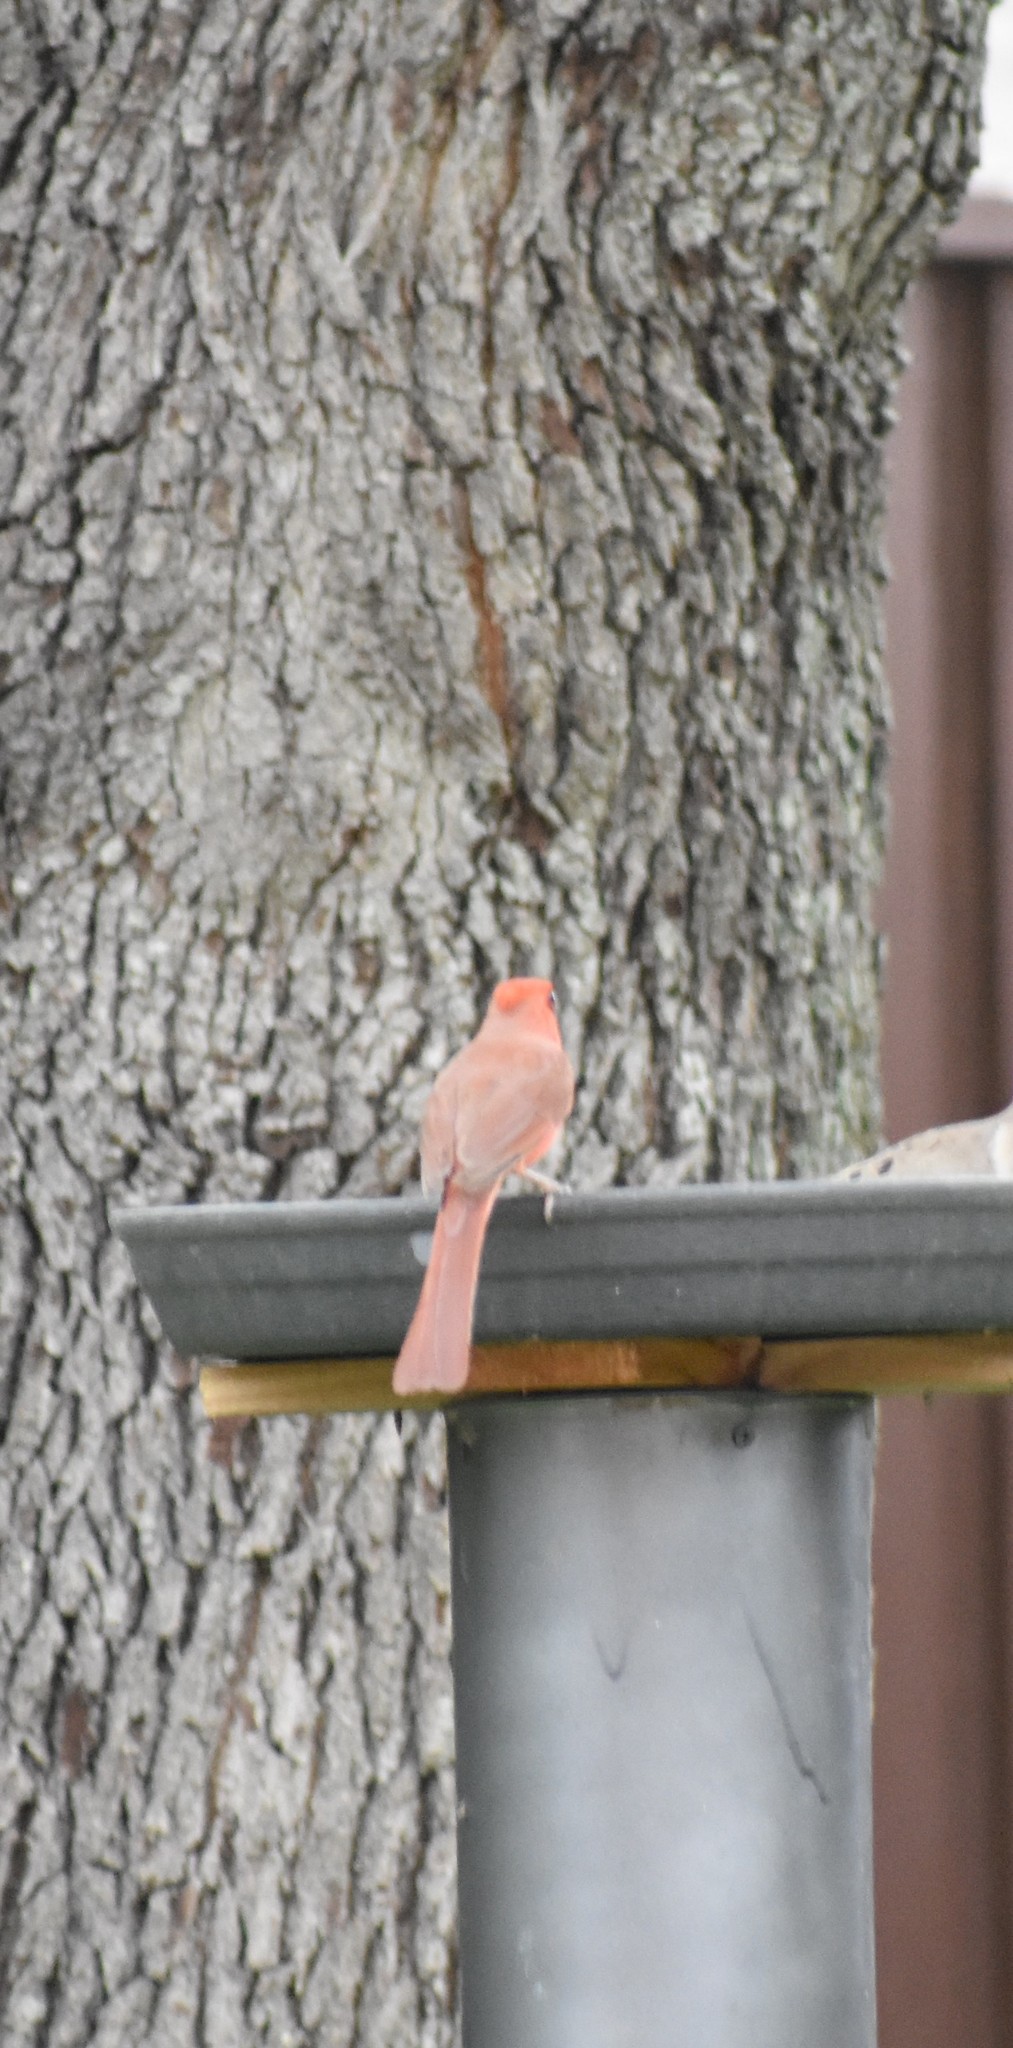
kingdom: Animalia
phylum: Chordata
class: Aves
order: Passeriformes
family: Cardinalidae
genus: Cardinalis
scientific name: Cardinalis cardinalis
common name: Northern cardinal
